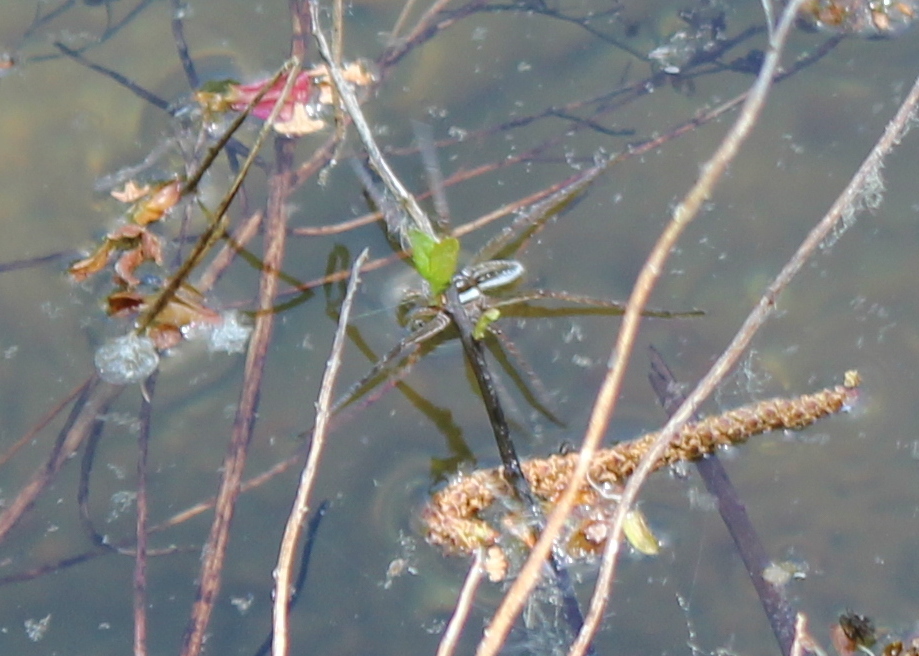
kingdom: Animalia
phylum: Arthropoda
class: Arachnida
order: Araneae
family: Pisauridae
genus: Dolomedes
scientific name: Dolomedes triton
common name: Six-spotted fishing spider
